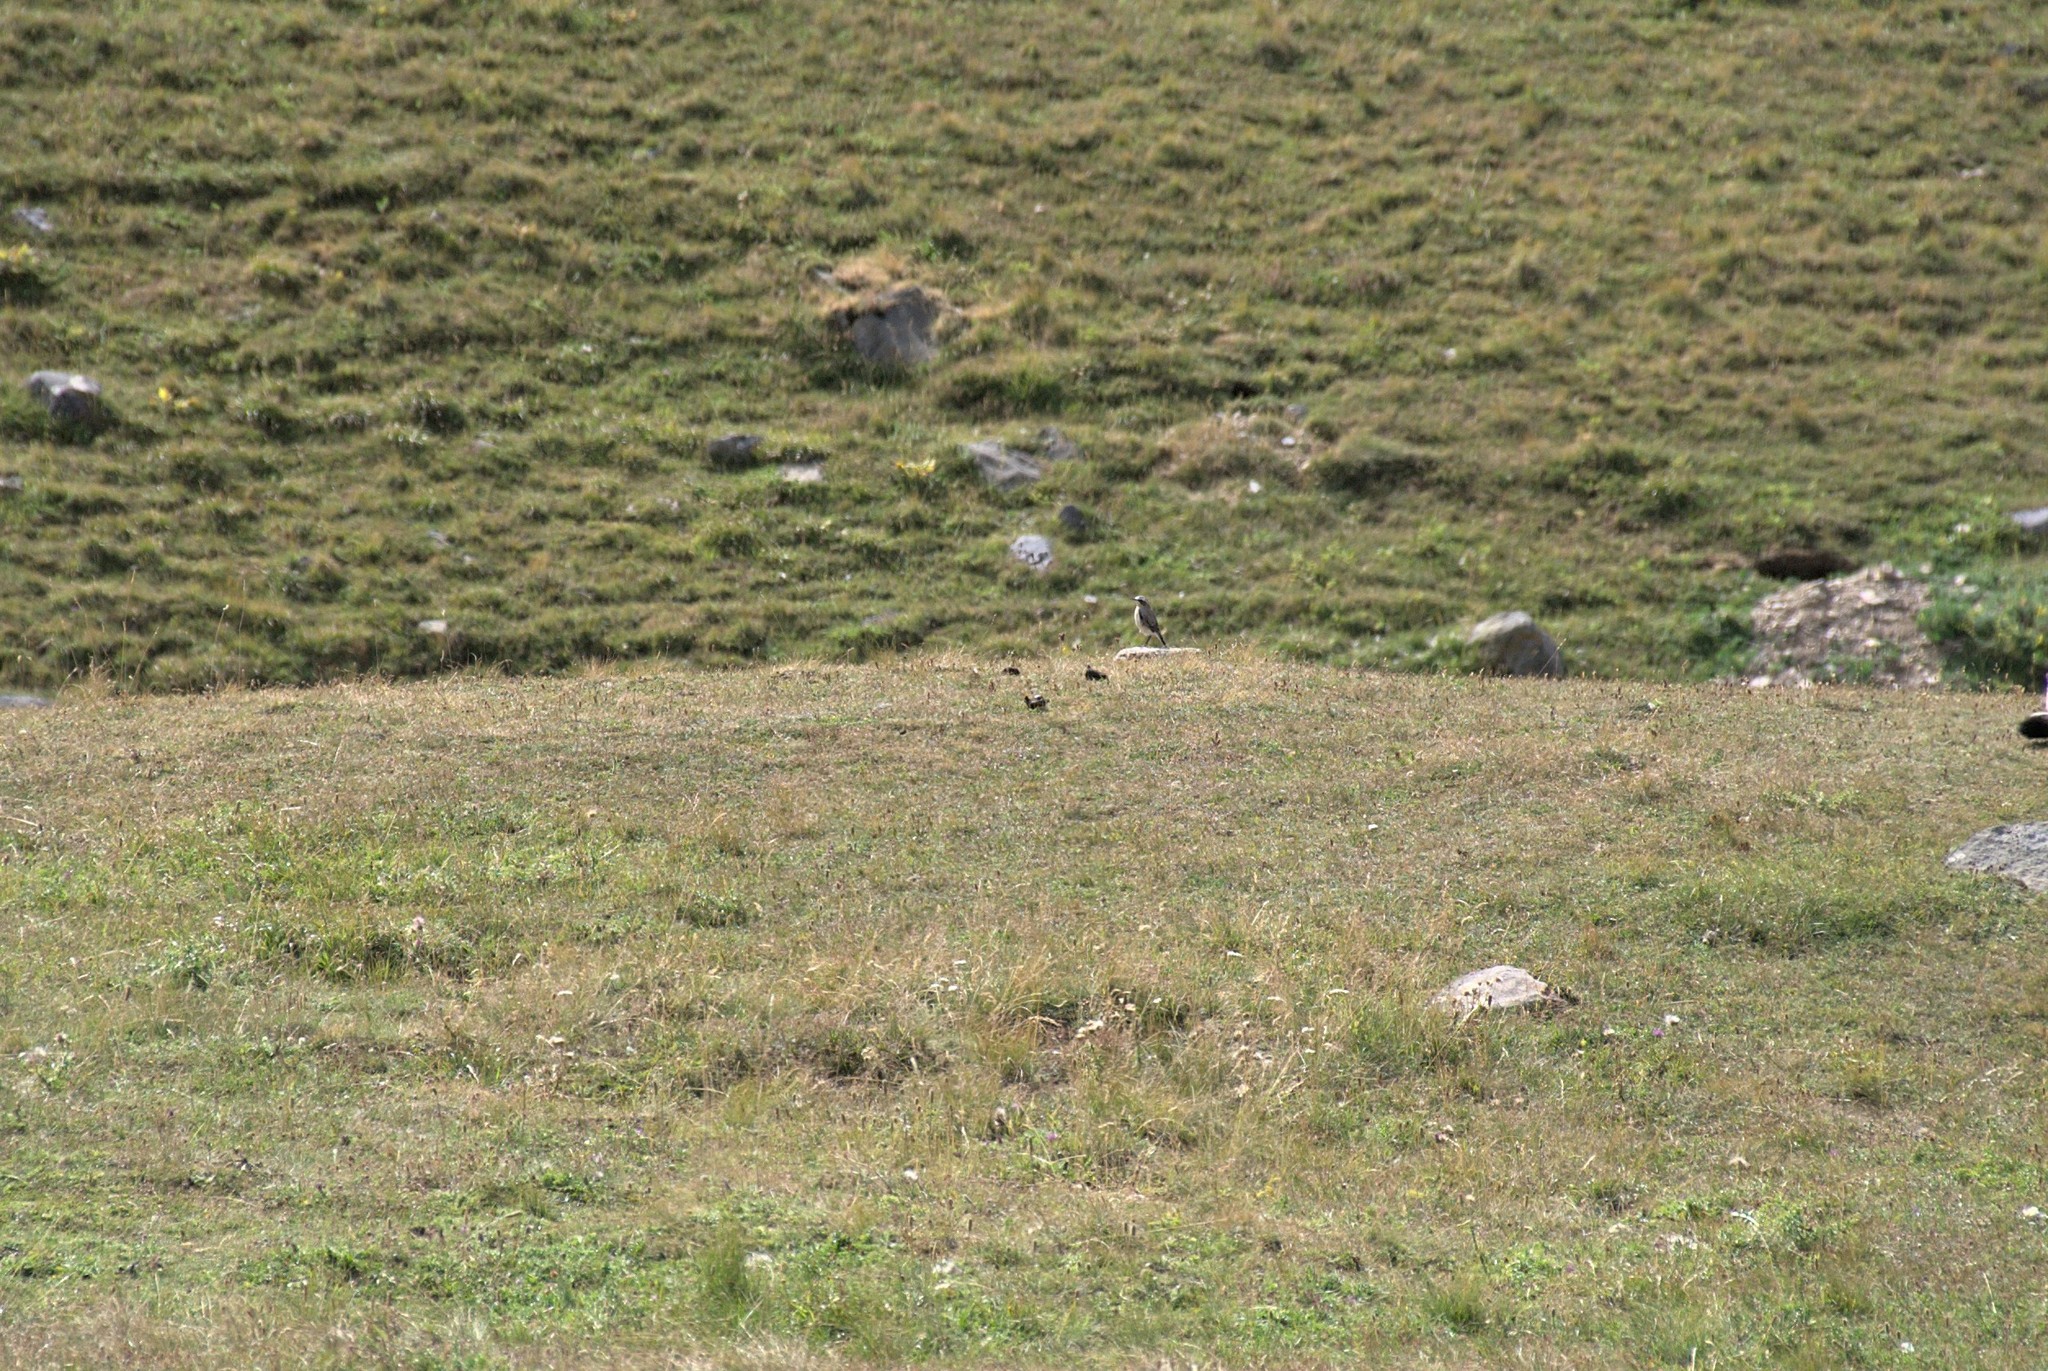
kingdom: Animalia
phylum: Chordata
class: Aves
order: Passeriformes
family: Muscicapidae
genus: Oenanthe
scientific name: Oenanthe oenanthe
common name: Northern wheatear
